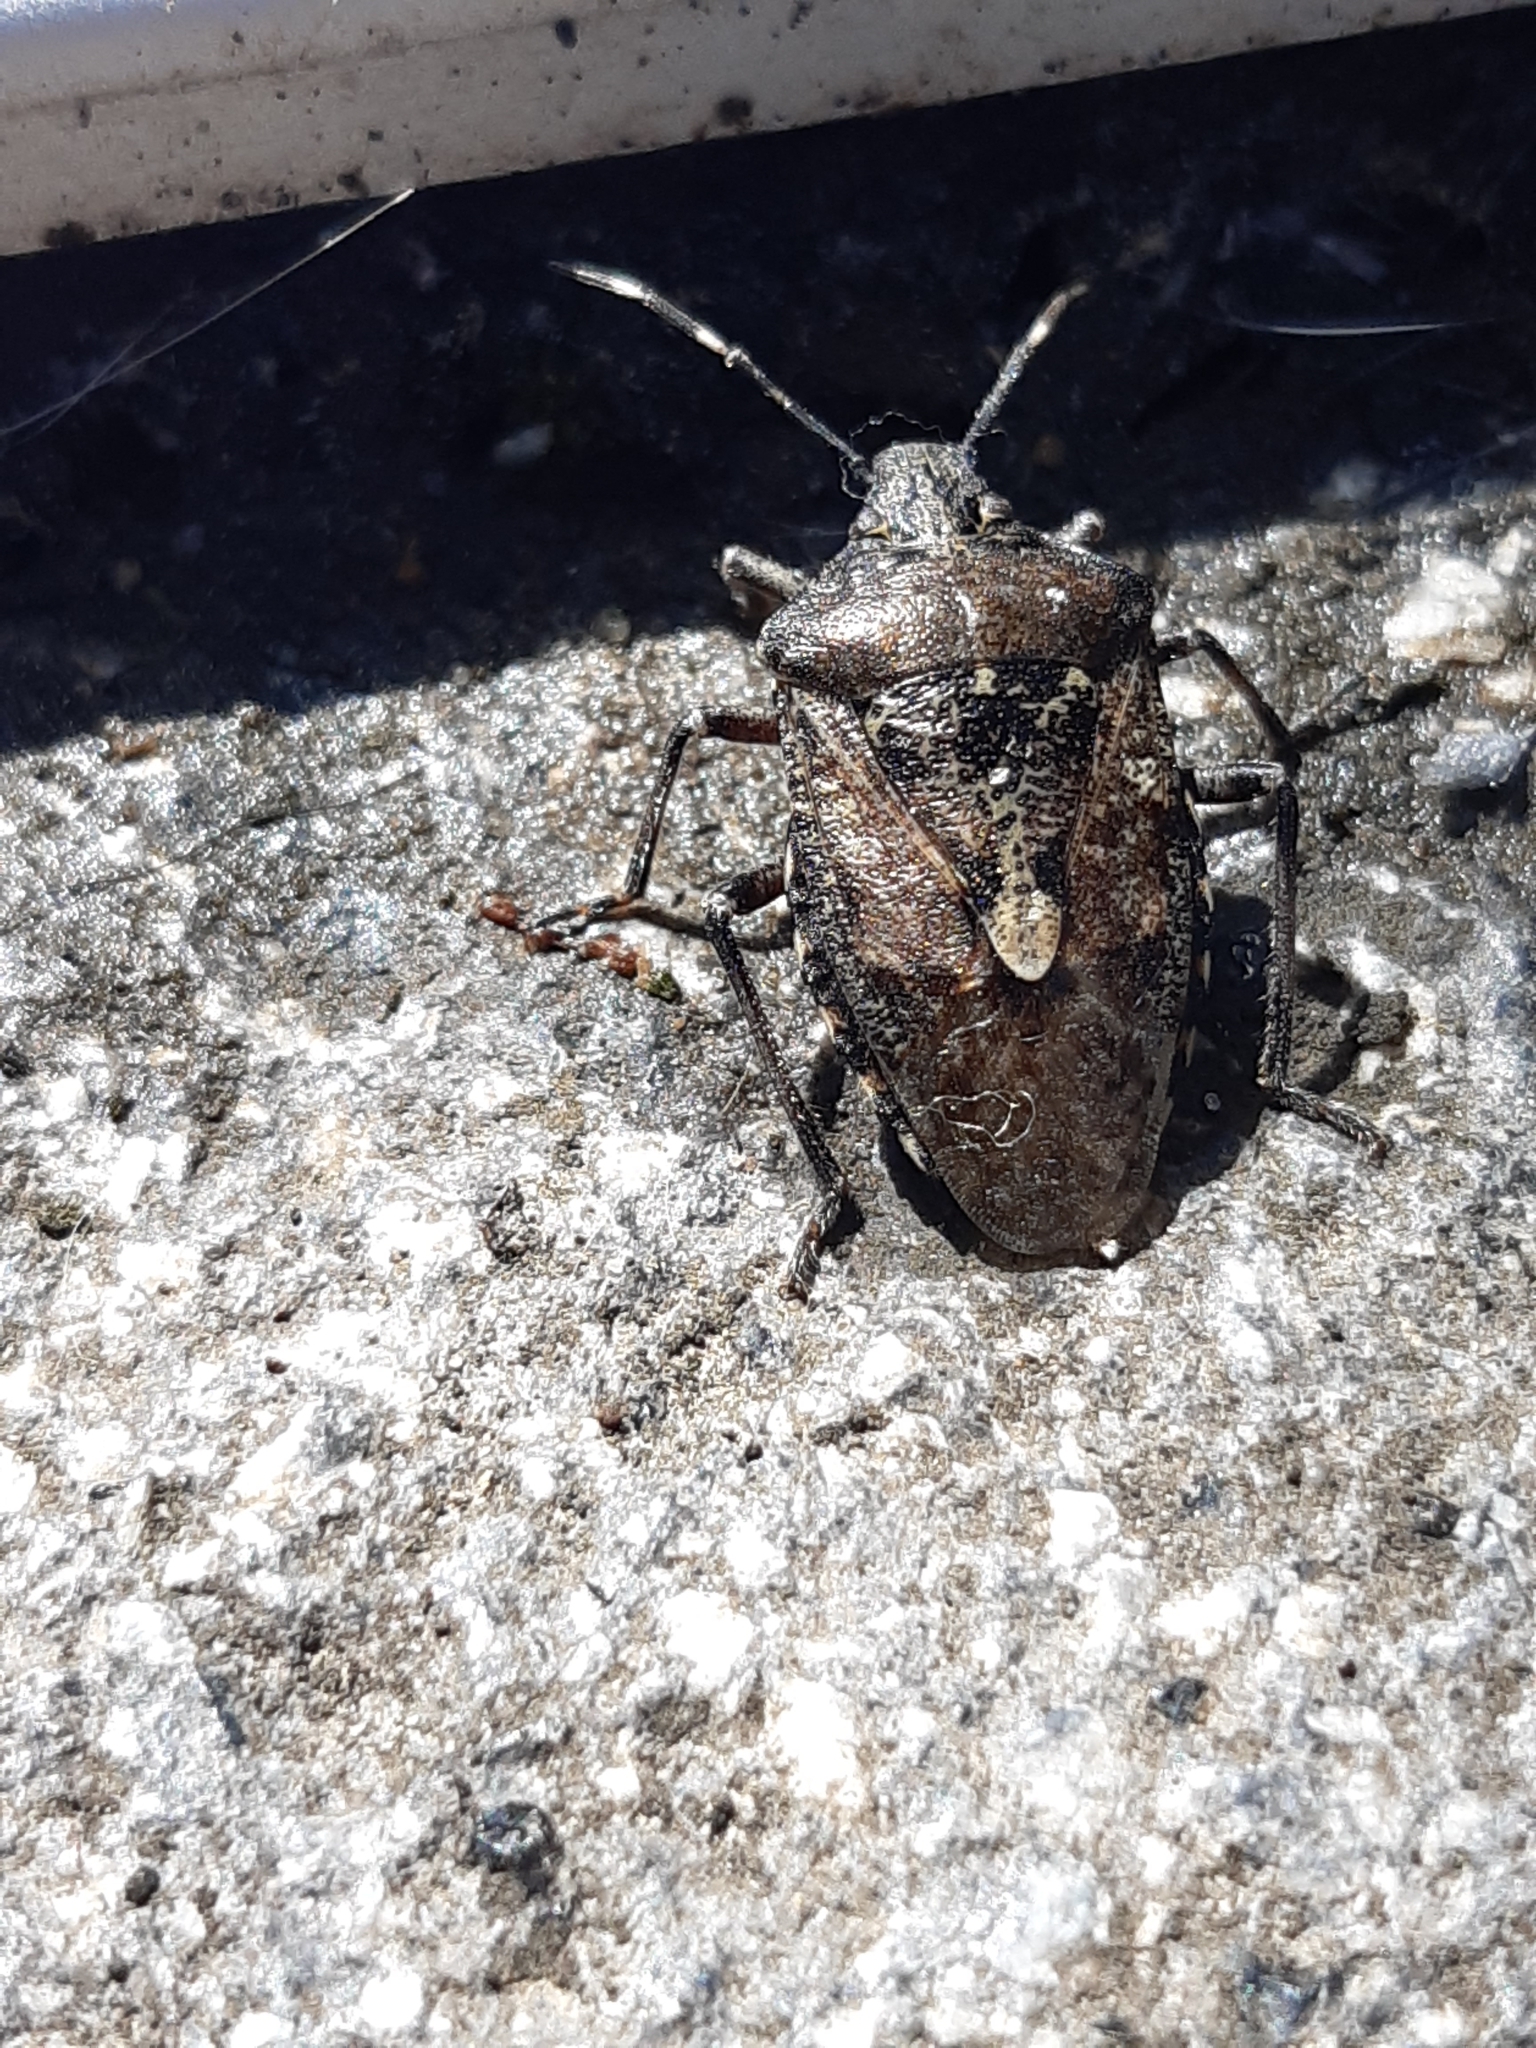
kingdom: Animalia
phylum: Arthropoda
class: Insecta
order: Hemiptera
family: Pentatomidae
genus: Rhaphigaster
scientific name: Rhaphigaster nebulosa
